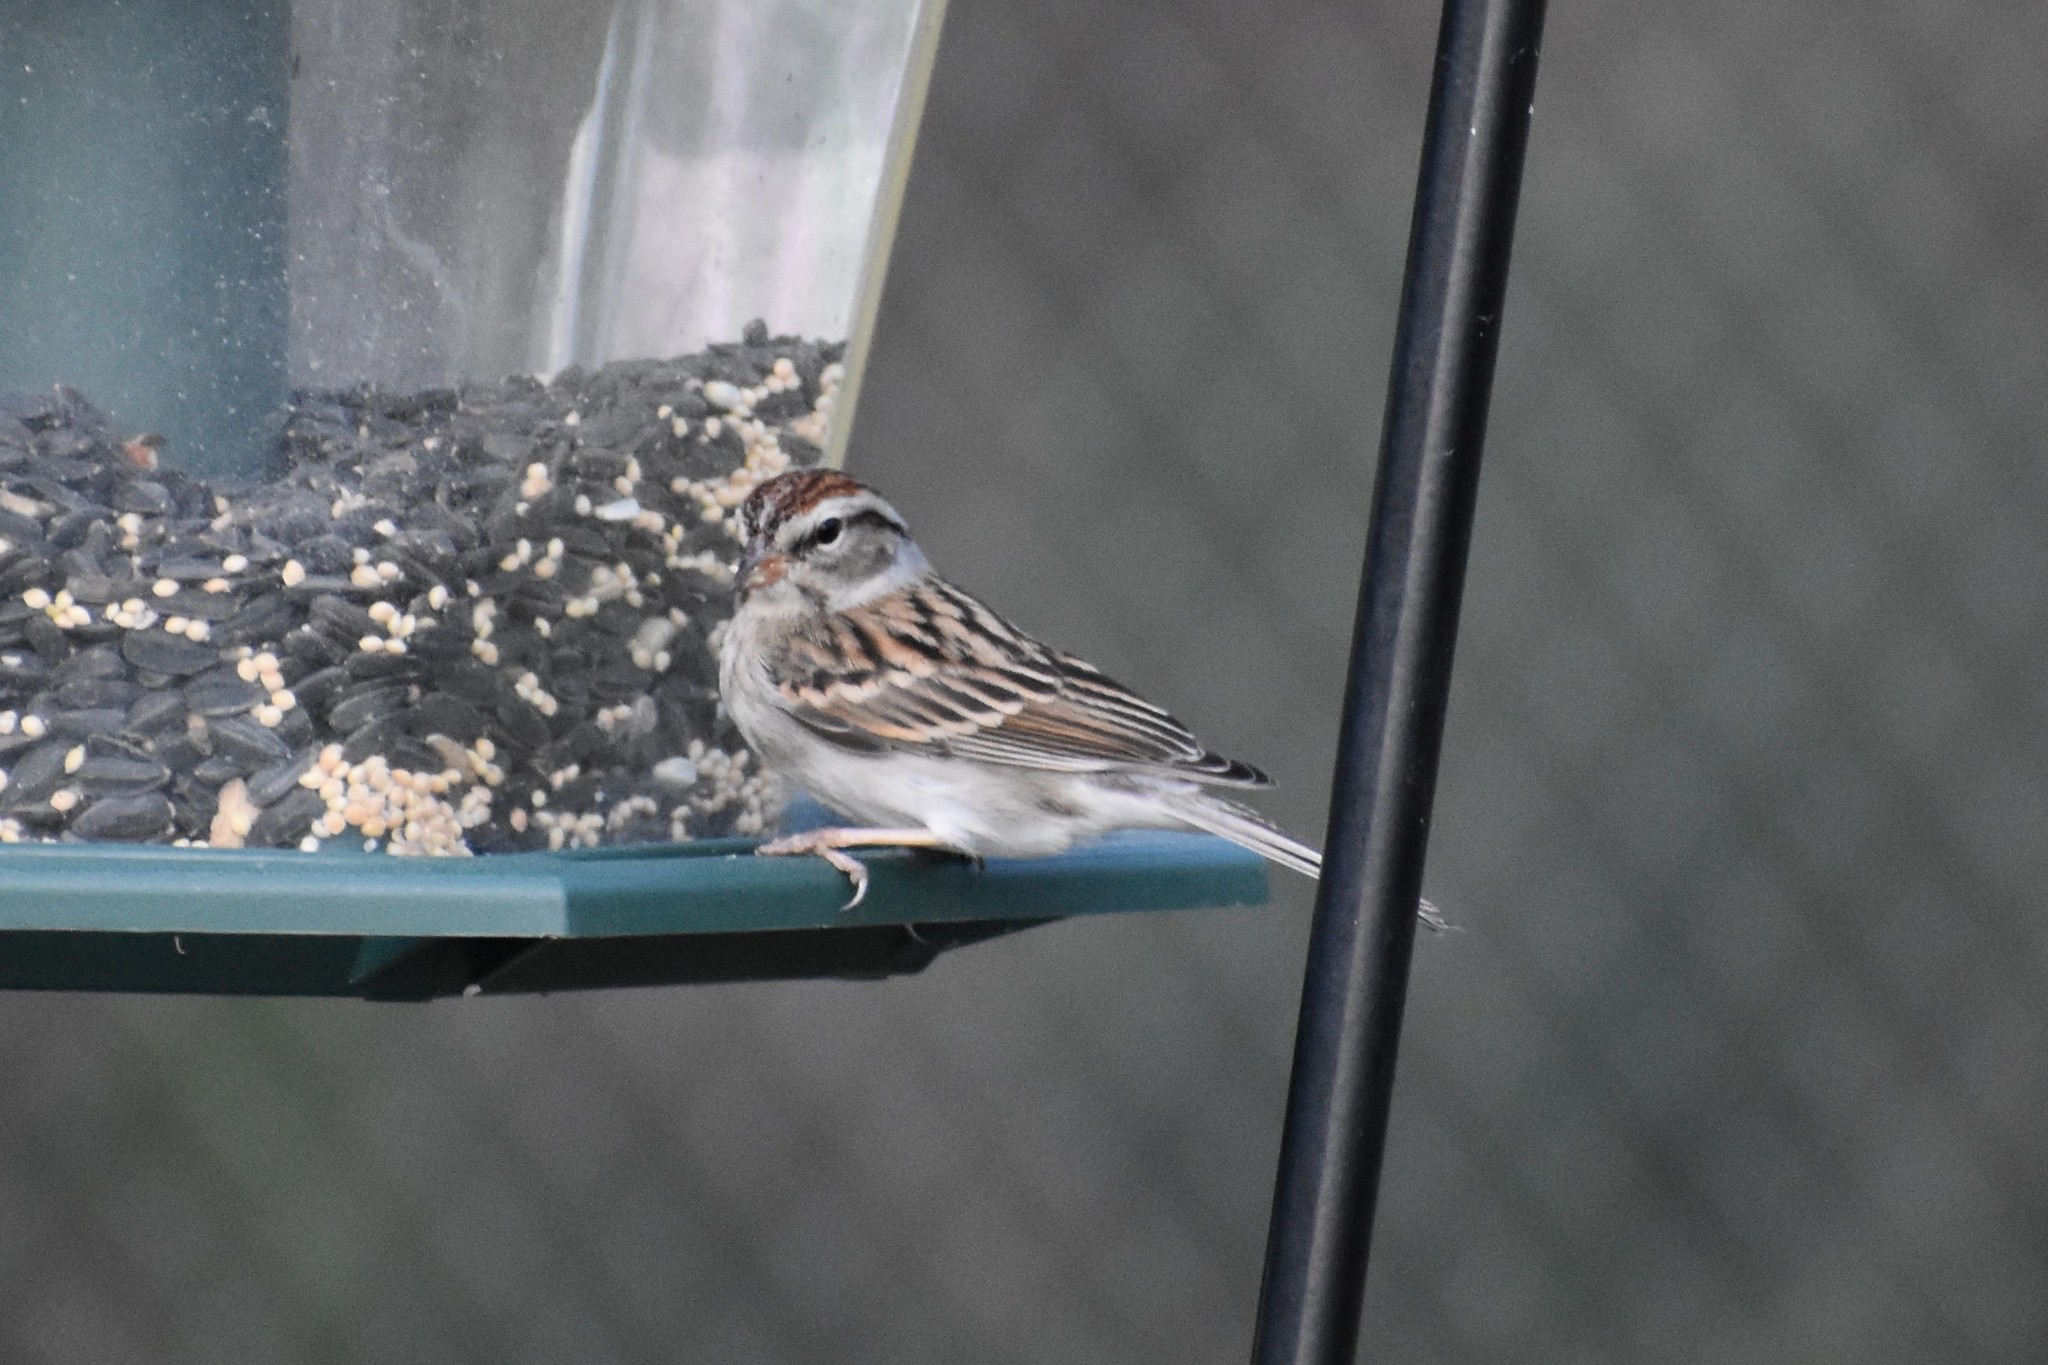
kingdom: Animalia
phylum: Chordata
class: Aves
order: Passeriformes
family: Passerellidae
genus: Spizella
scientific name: Spizella passerina
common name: Chipping sparrow
